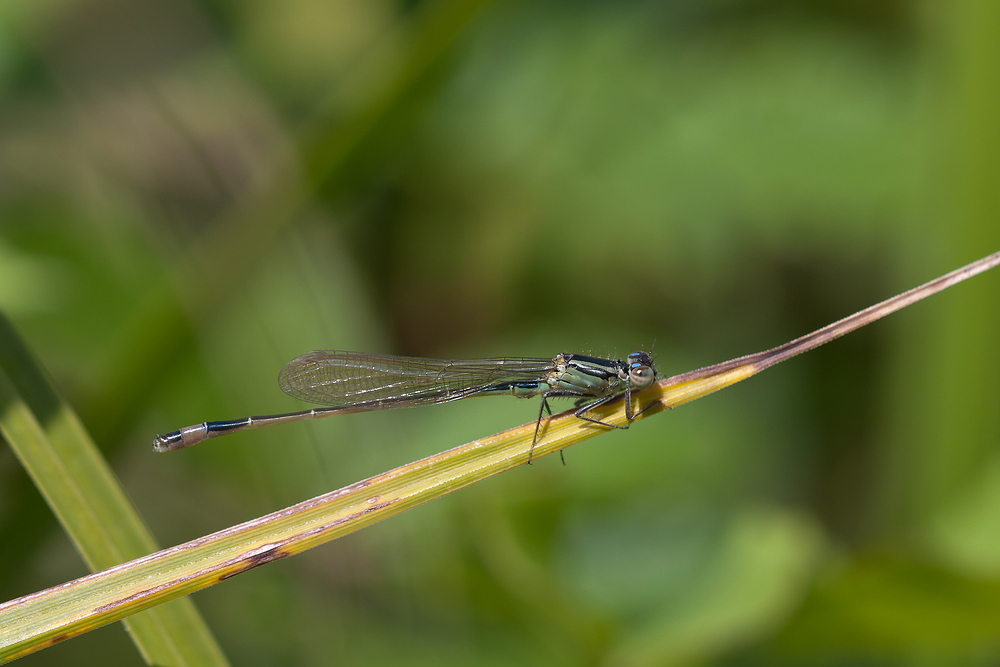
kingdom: Animalia
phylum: Arthropoda
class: Insecta
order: Odonata
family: Coenagrionidae
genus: Ischnura
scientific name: Ischnura elegans
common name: Blue-tailed damselfly
